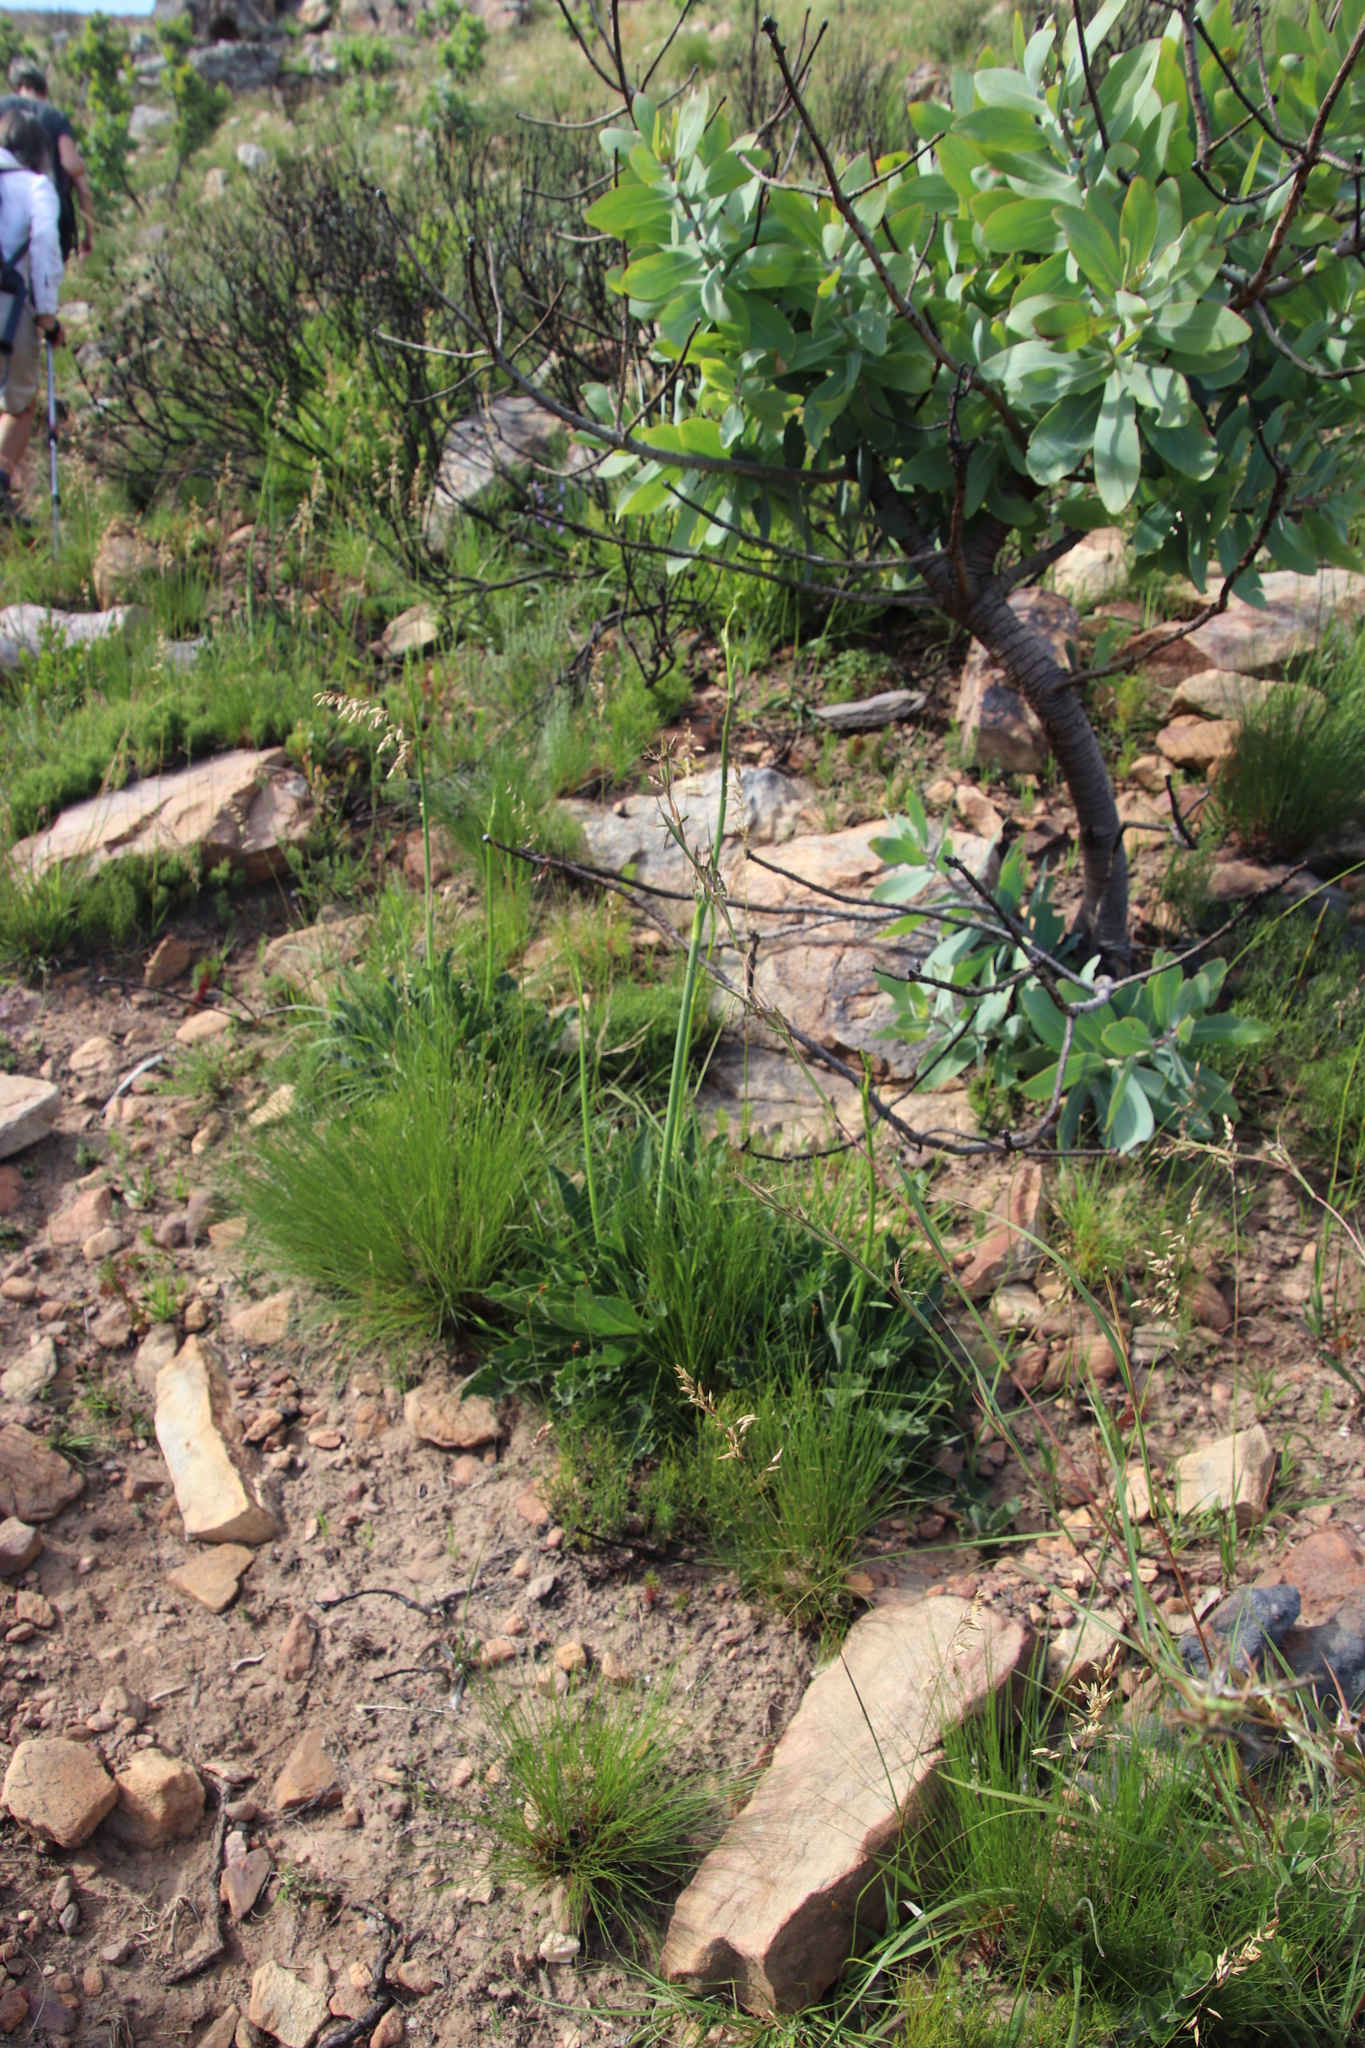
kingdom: Plantae
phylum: Tracheophyta
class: Magnoliopsida
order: Apiales
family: Apiaceae
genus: Lichtensteinia
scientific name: Lichtensteinia trifida
